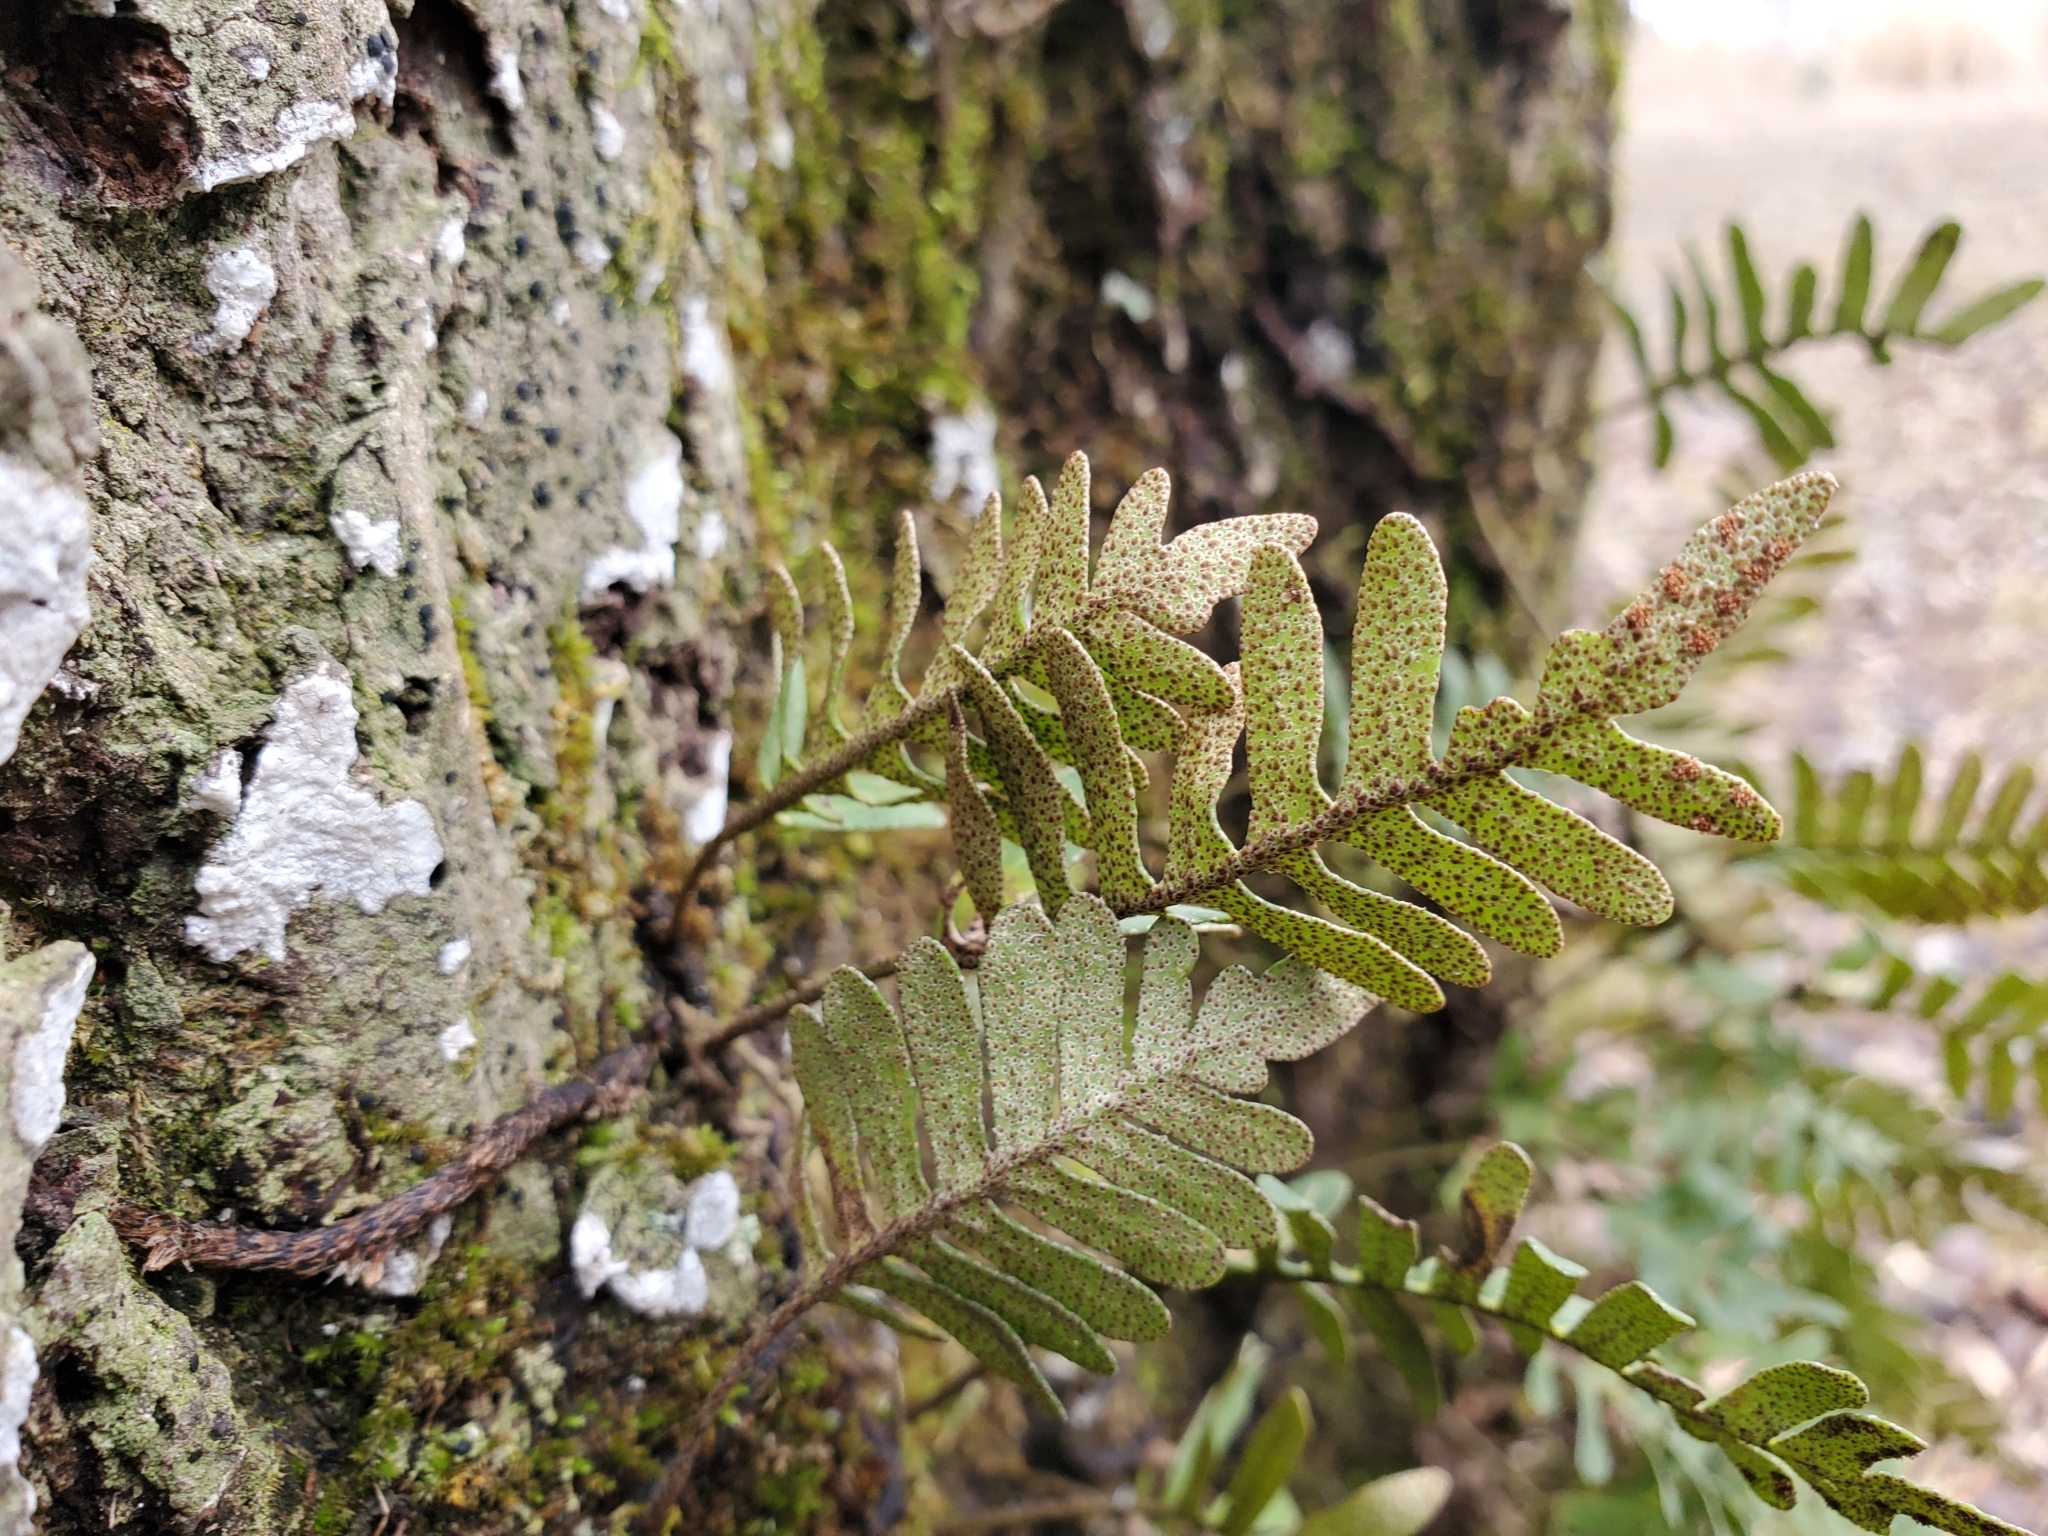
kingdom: Plantae
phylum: Tracheophyta
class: Polypodiopsida
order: Polypodiales
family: Polypodiaceae
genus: Pleopeltis
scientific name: Pleopeltis michauxiana
